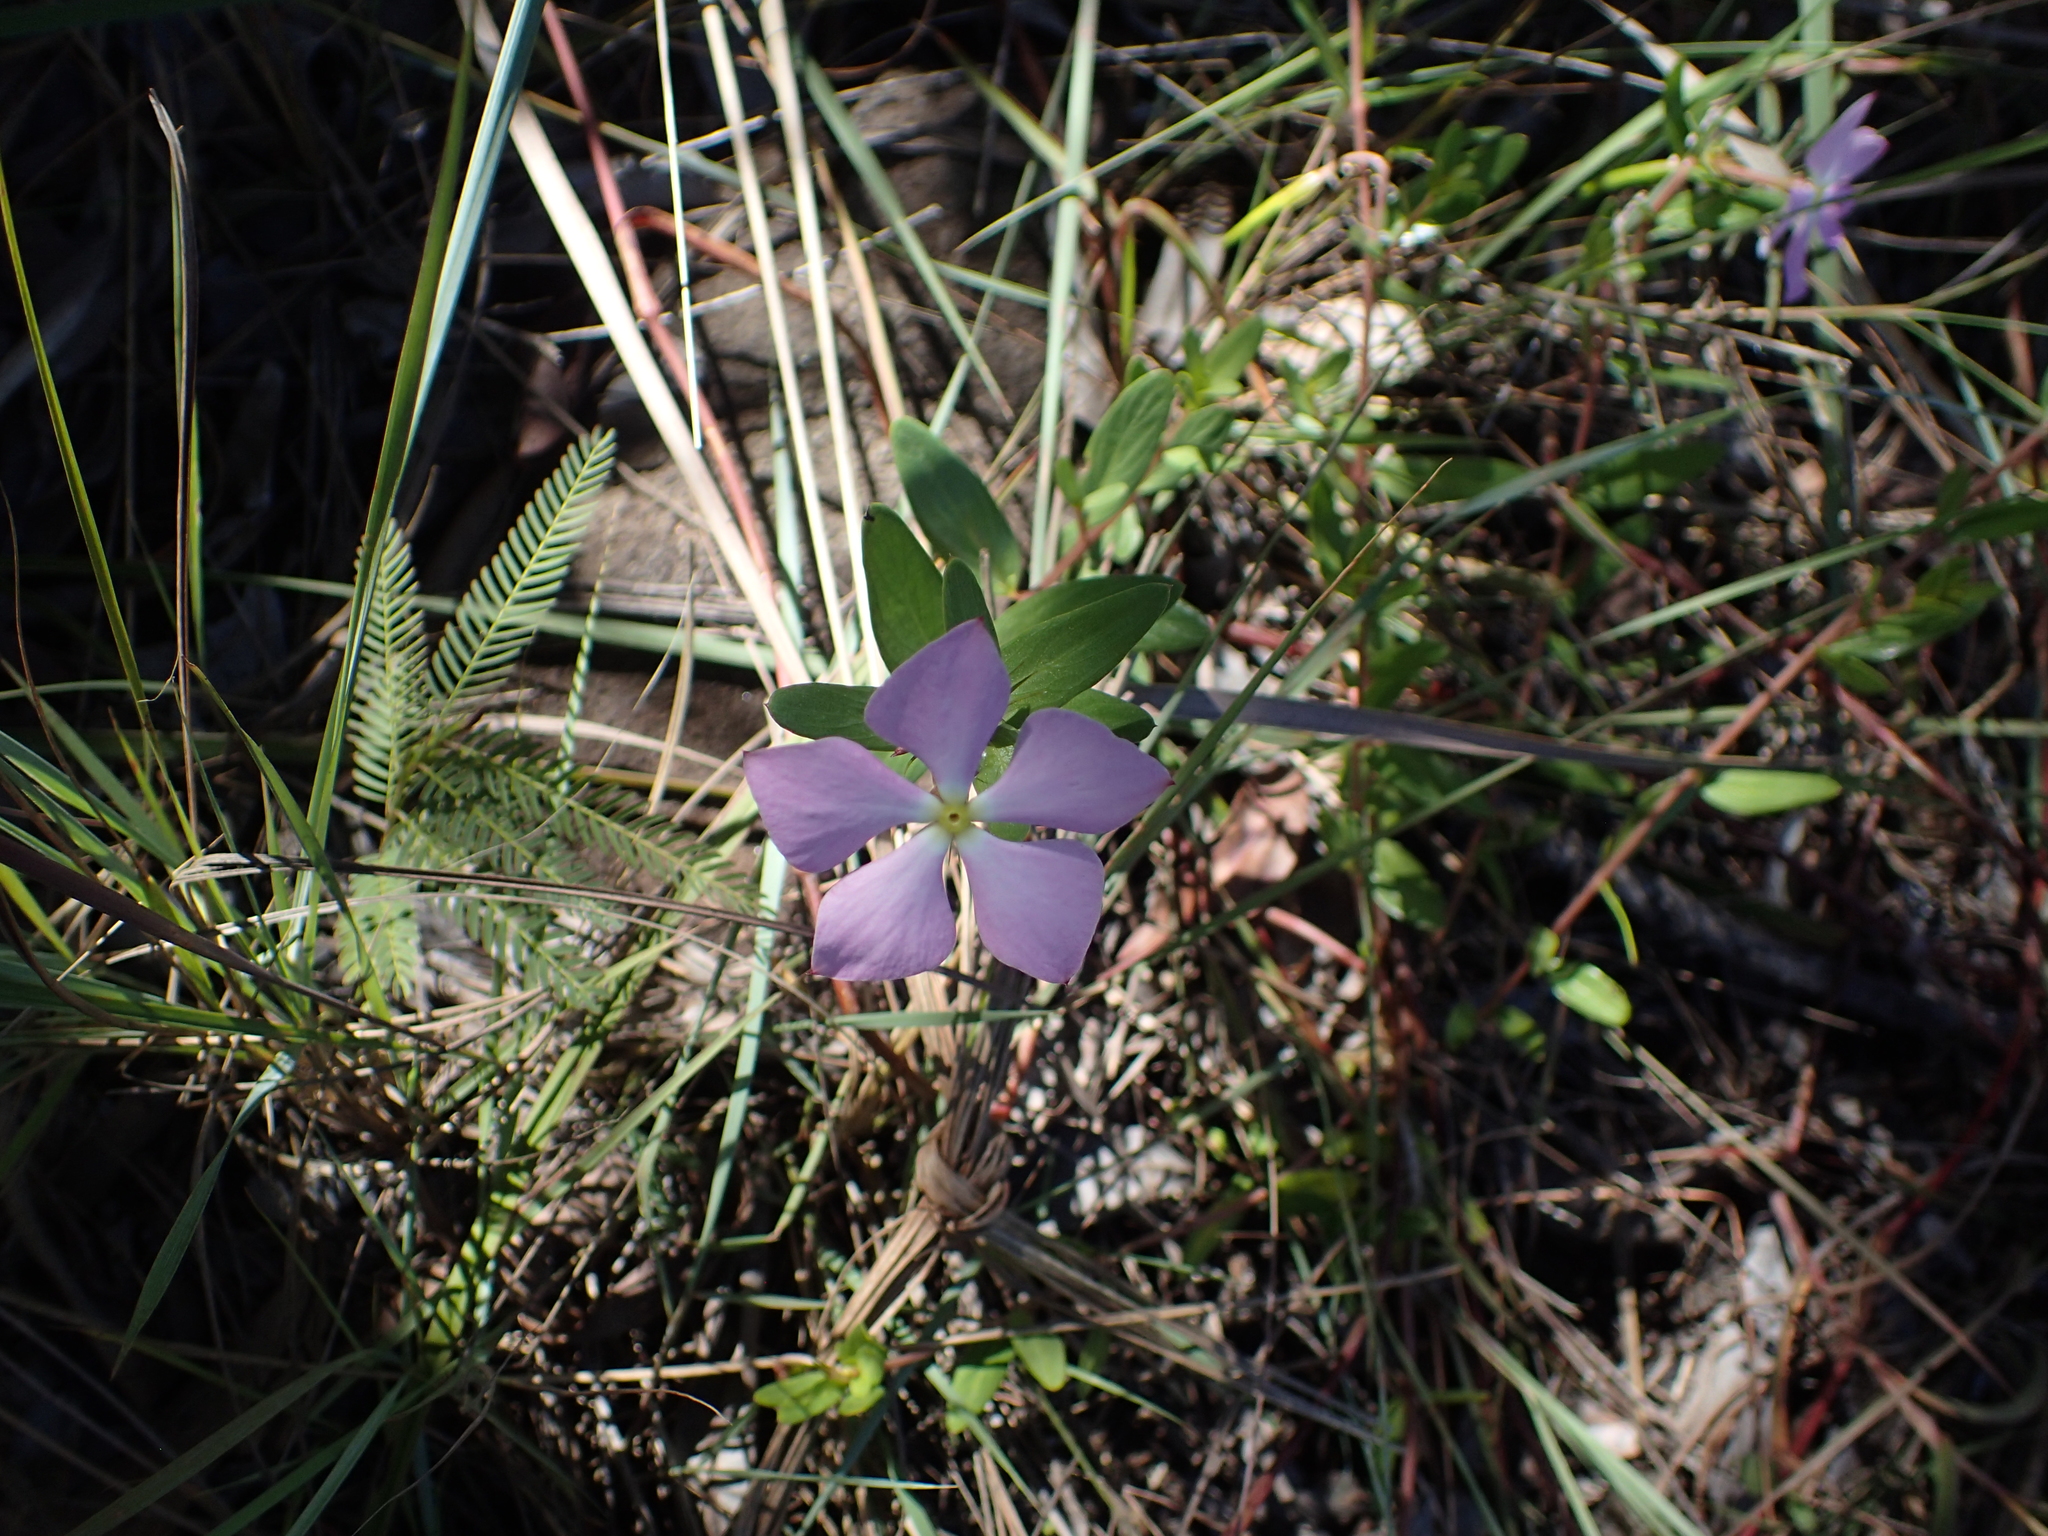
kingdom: Plantae
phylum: Tracheophyta
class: Magnoliopsida
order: Gentianales
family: Apocynaceae
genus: Catharanthus
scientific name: Catharanthus lanceus
